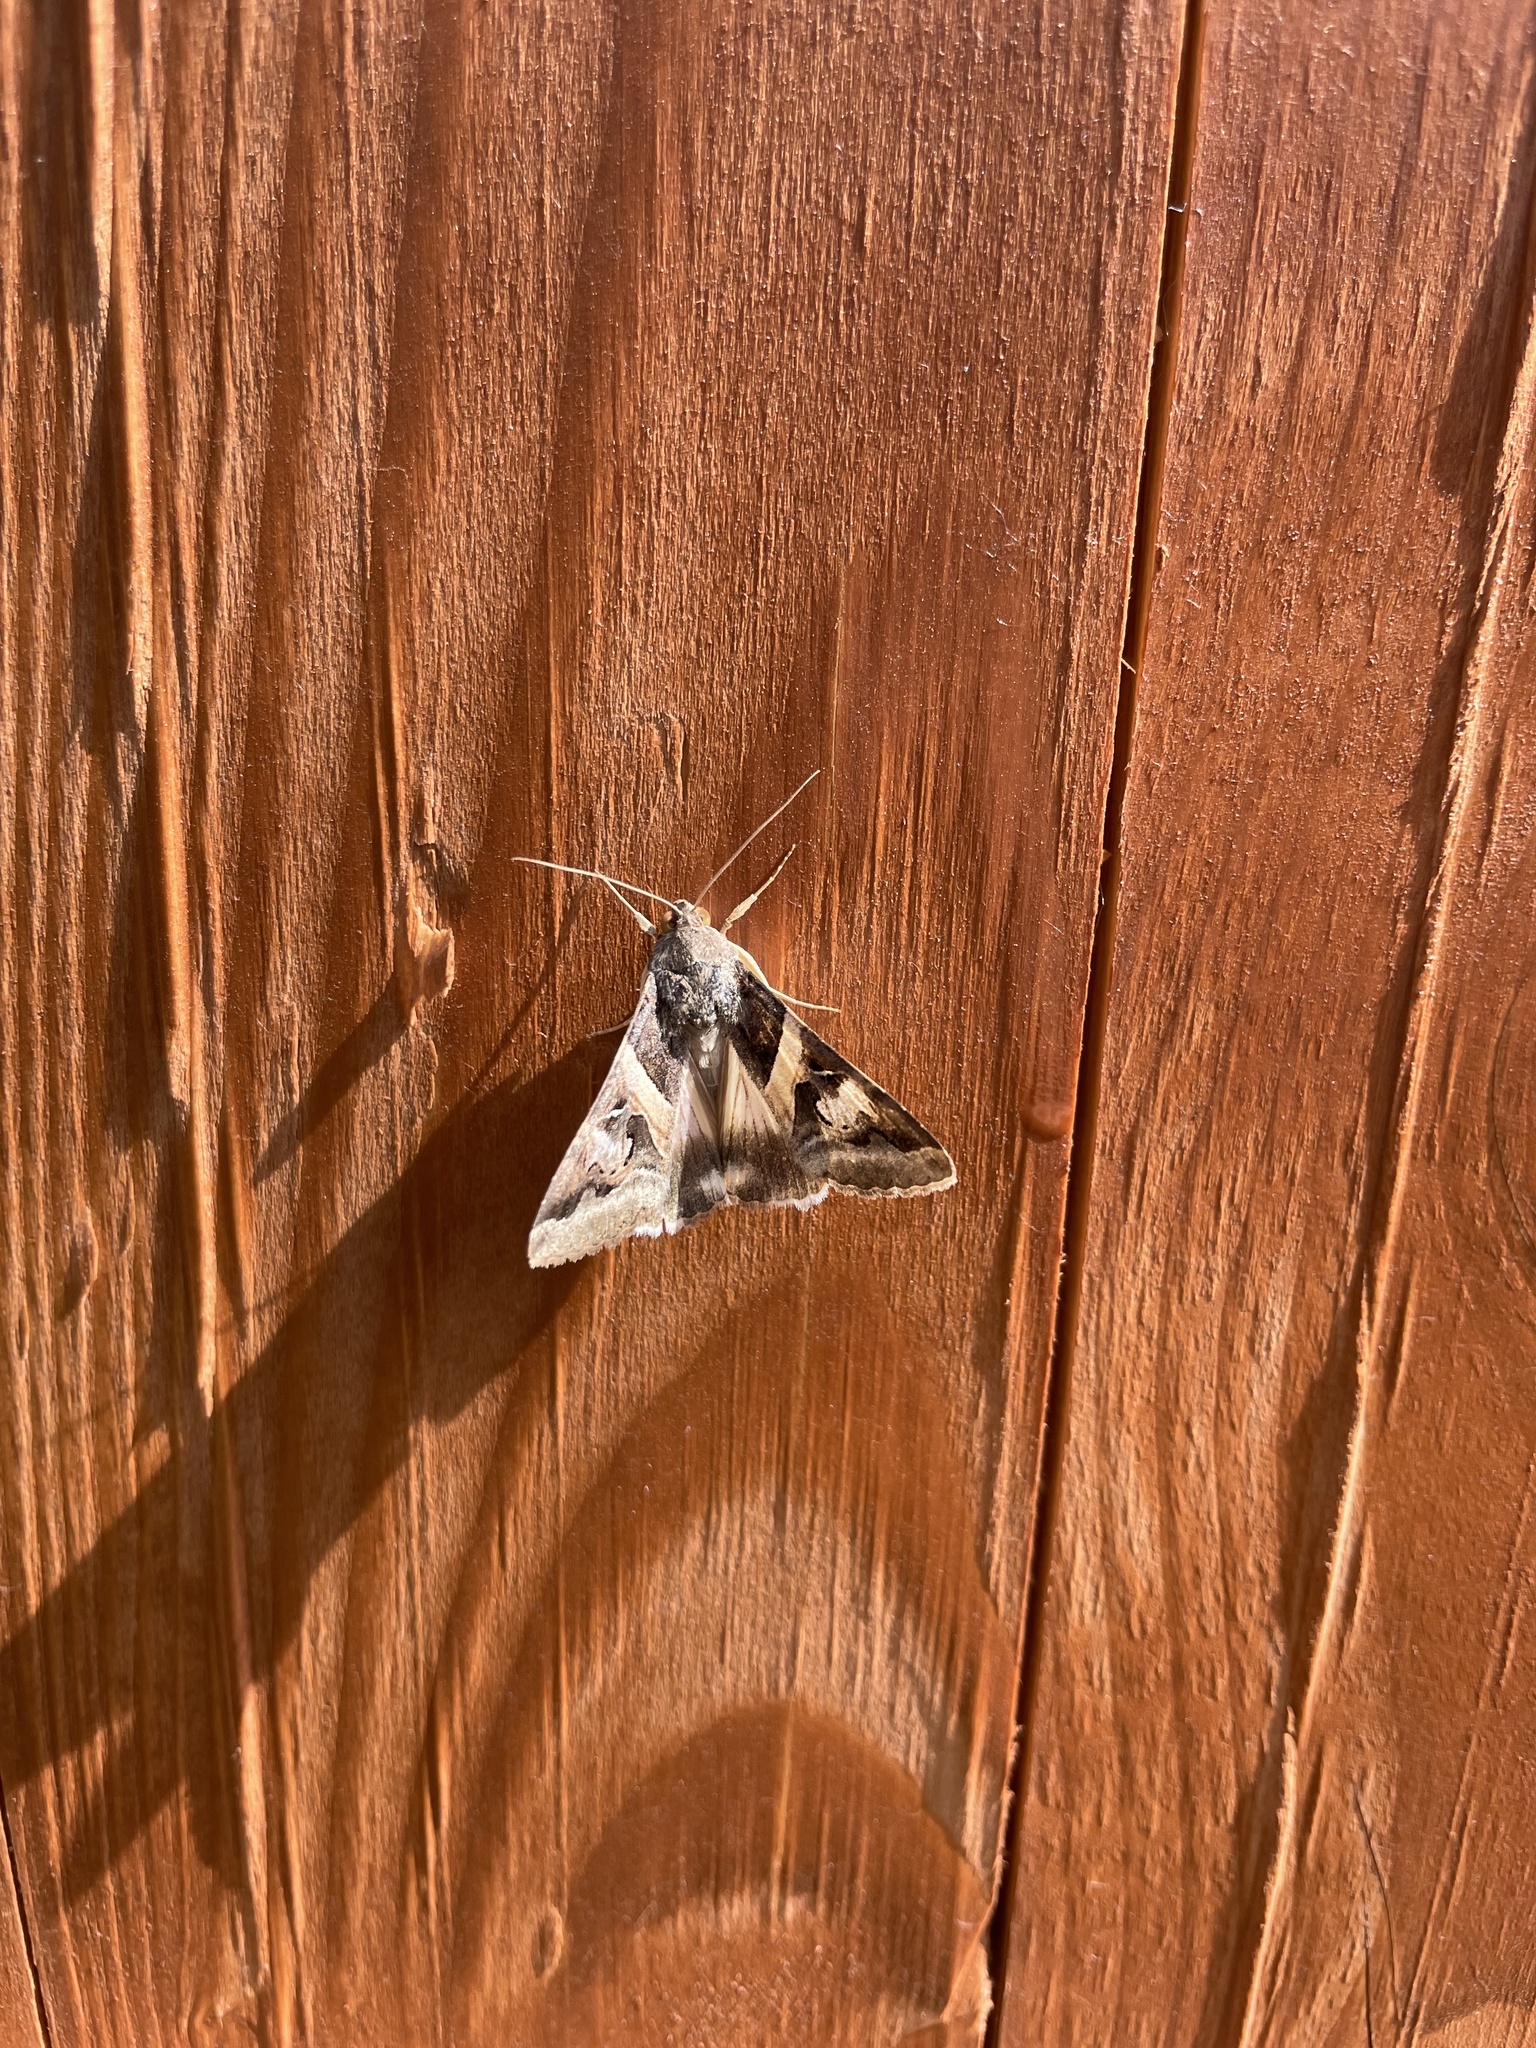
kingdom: Animalia
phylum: Arthropoda
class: Insecta
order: Lepidoptera
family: Erebidae
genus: Melipotis
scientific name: Melipotis indomita
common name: Moth
